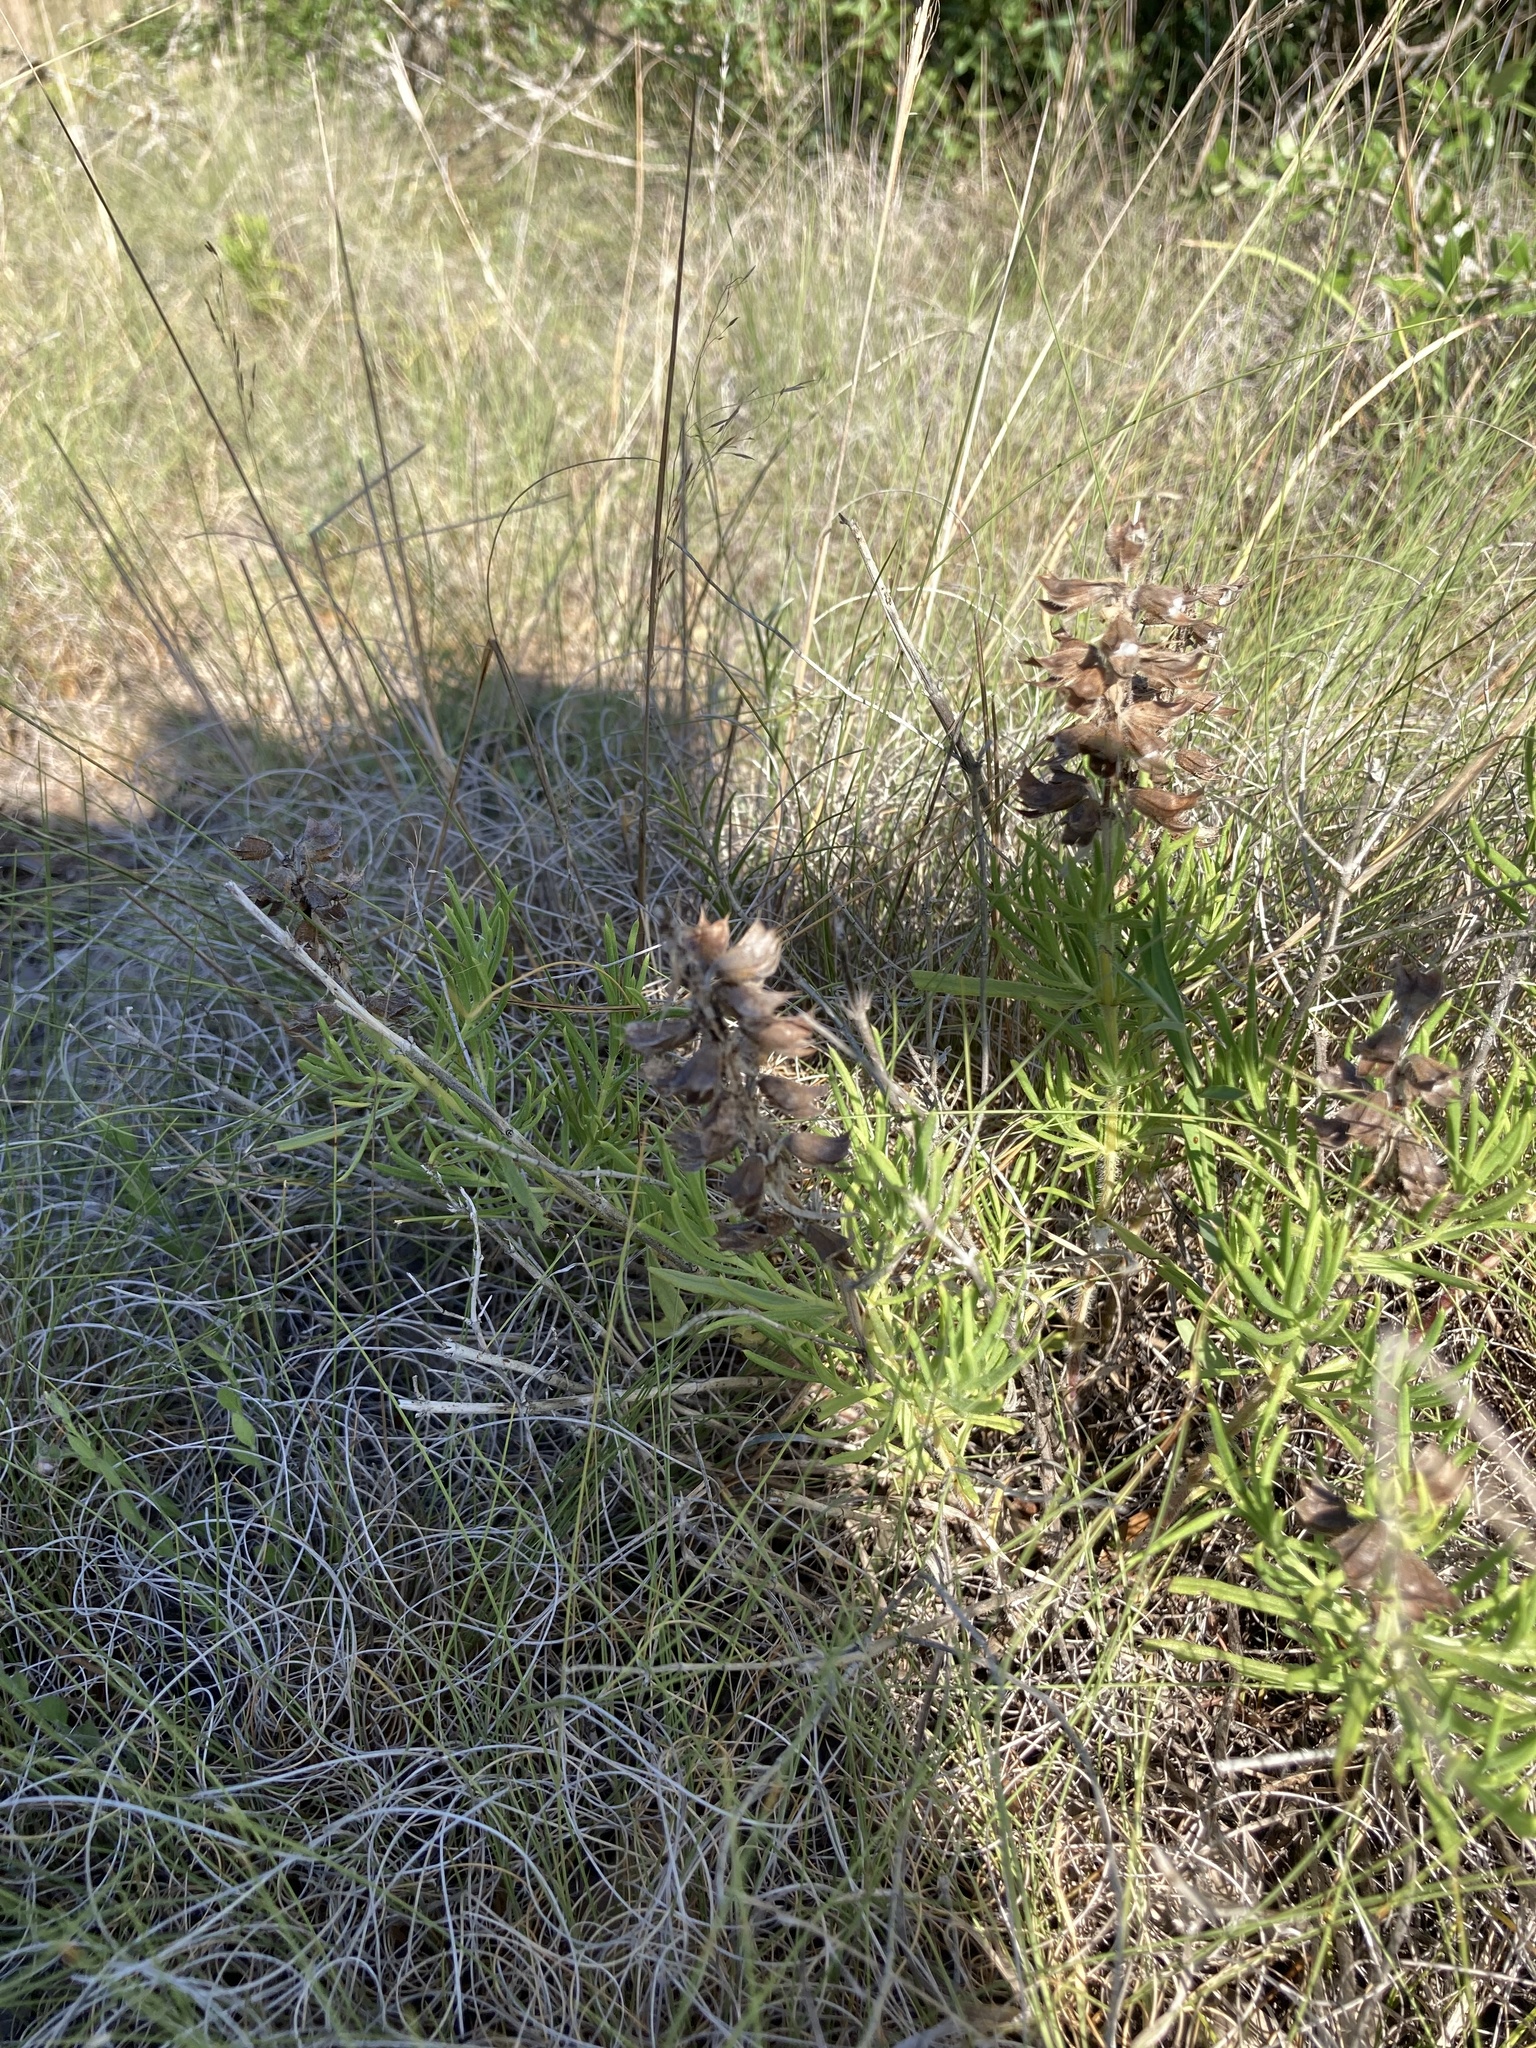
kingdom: Plantae
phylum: Tracheophyta
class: Magnoliopsida
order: Lamiales
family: Lamiaceae
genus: Salvia
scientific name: Salvia engelmannii
